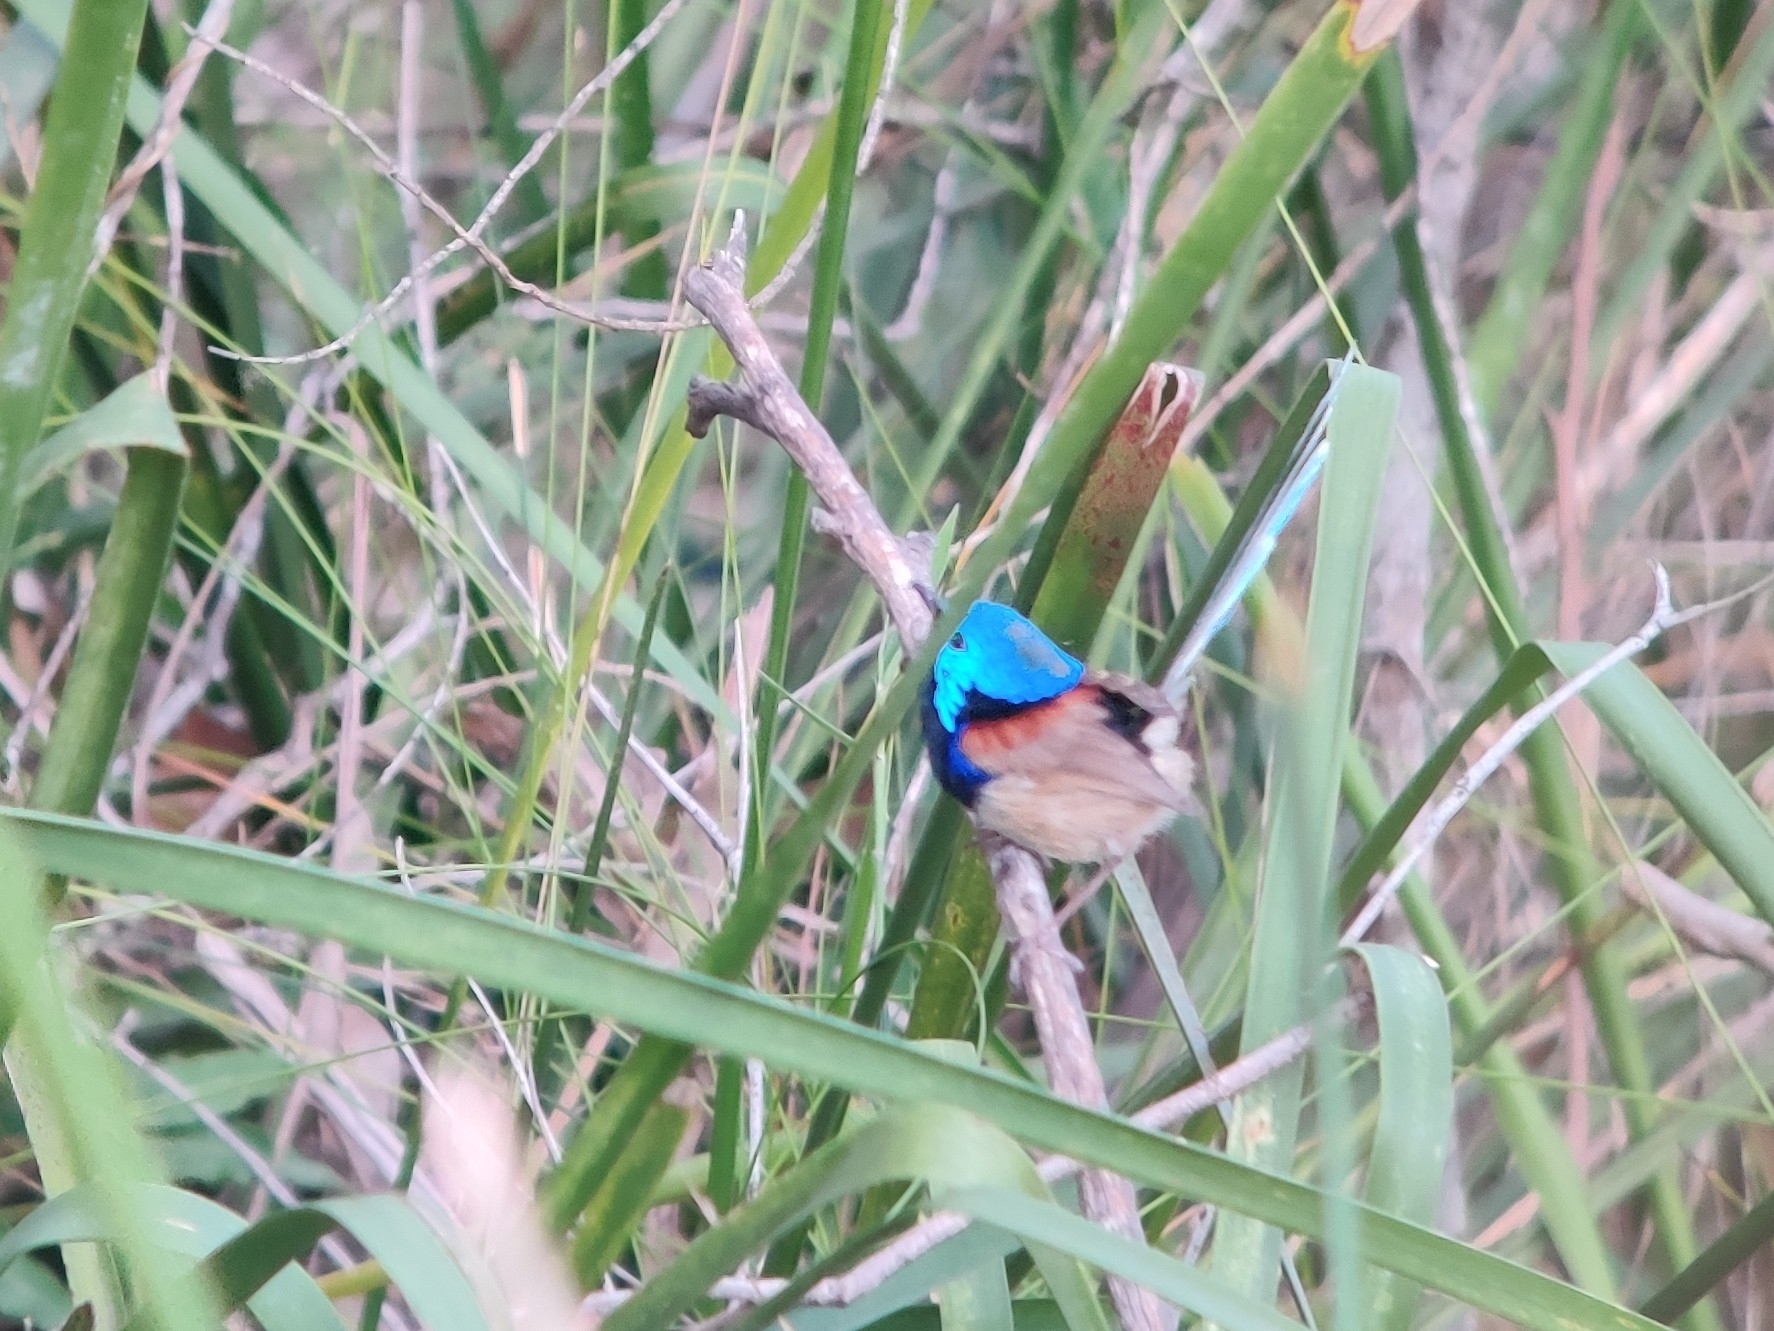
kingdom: Animalia
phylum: Chordata
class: Aves
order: Passeriformes
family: Maluridae
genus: Malurus
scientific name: Malurus lamberti
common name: Variegated fairywren
